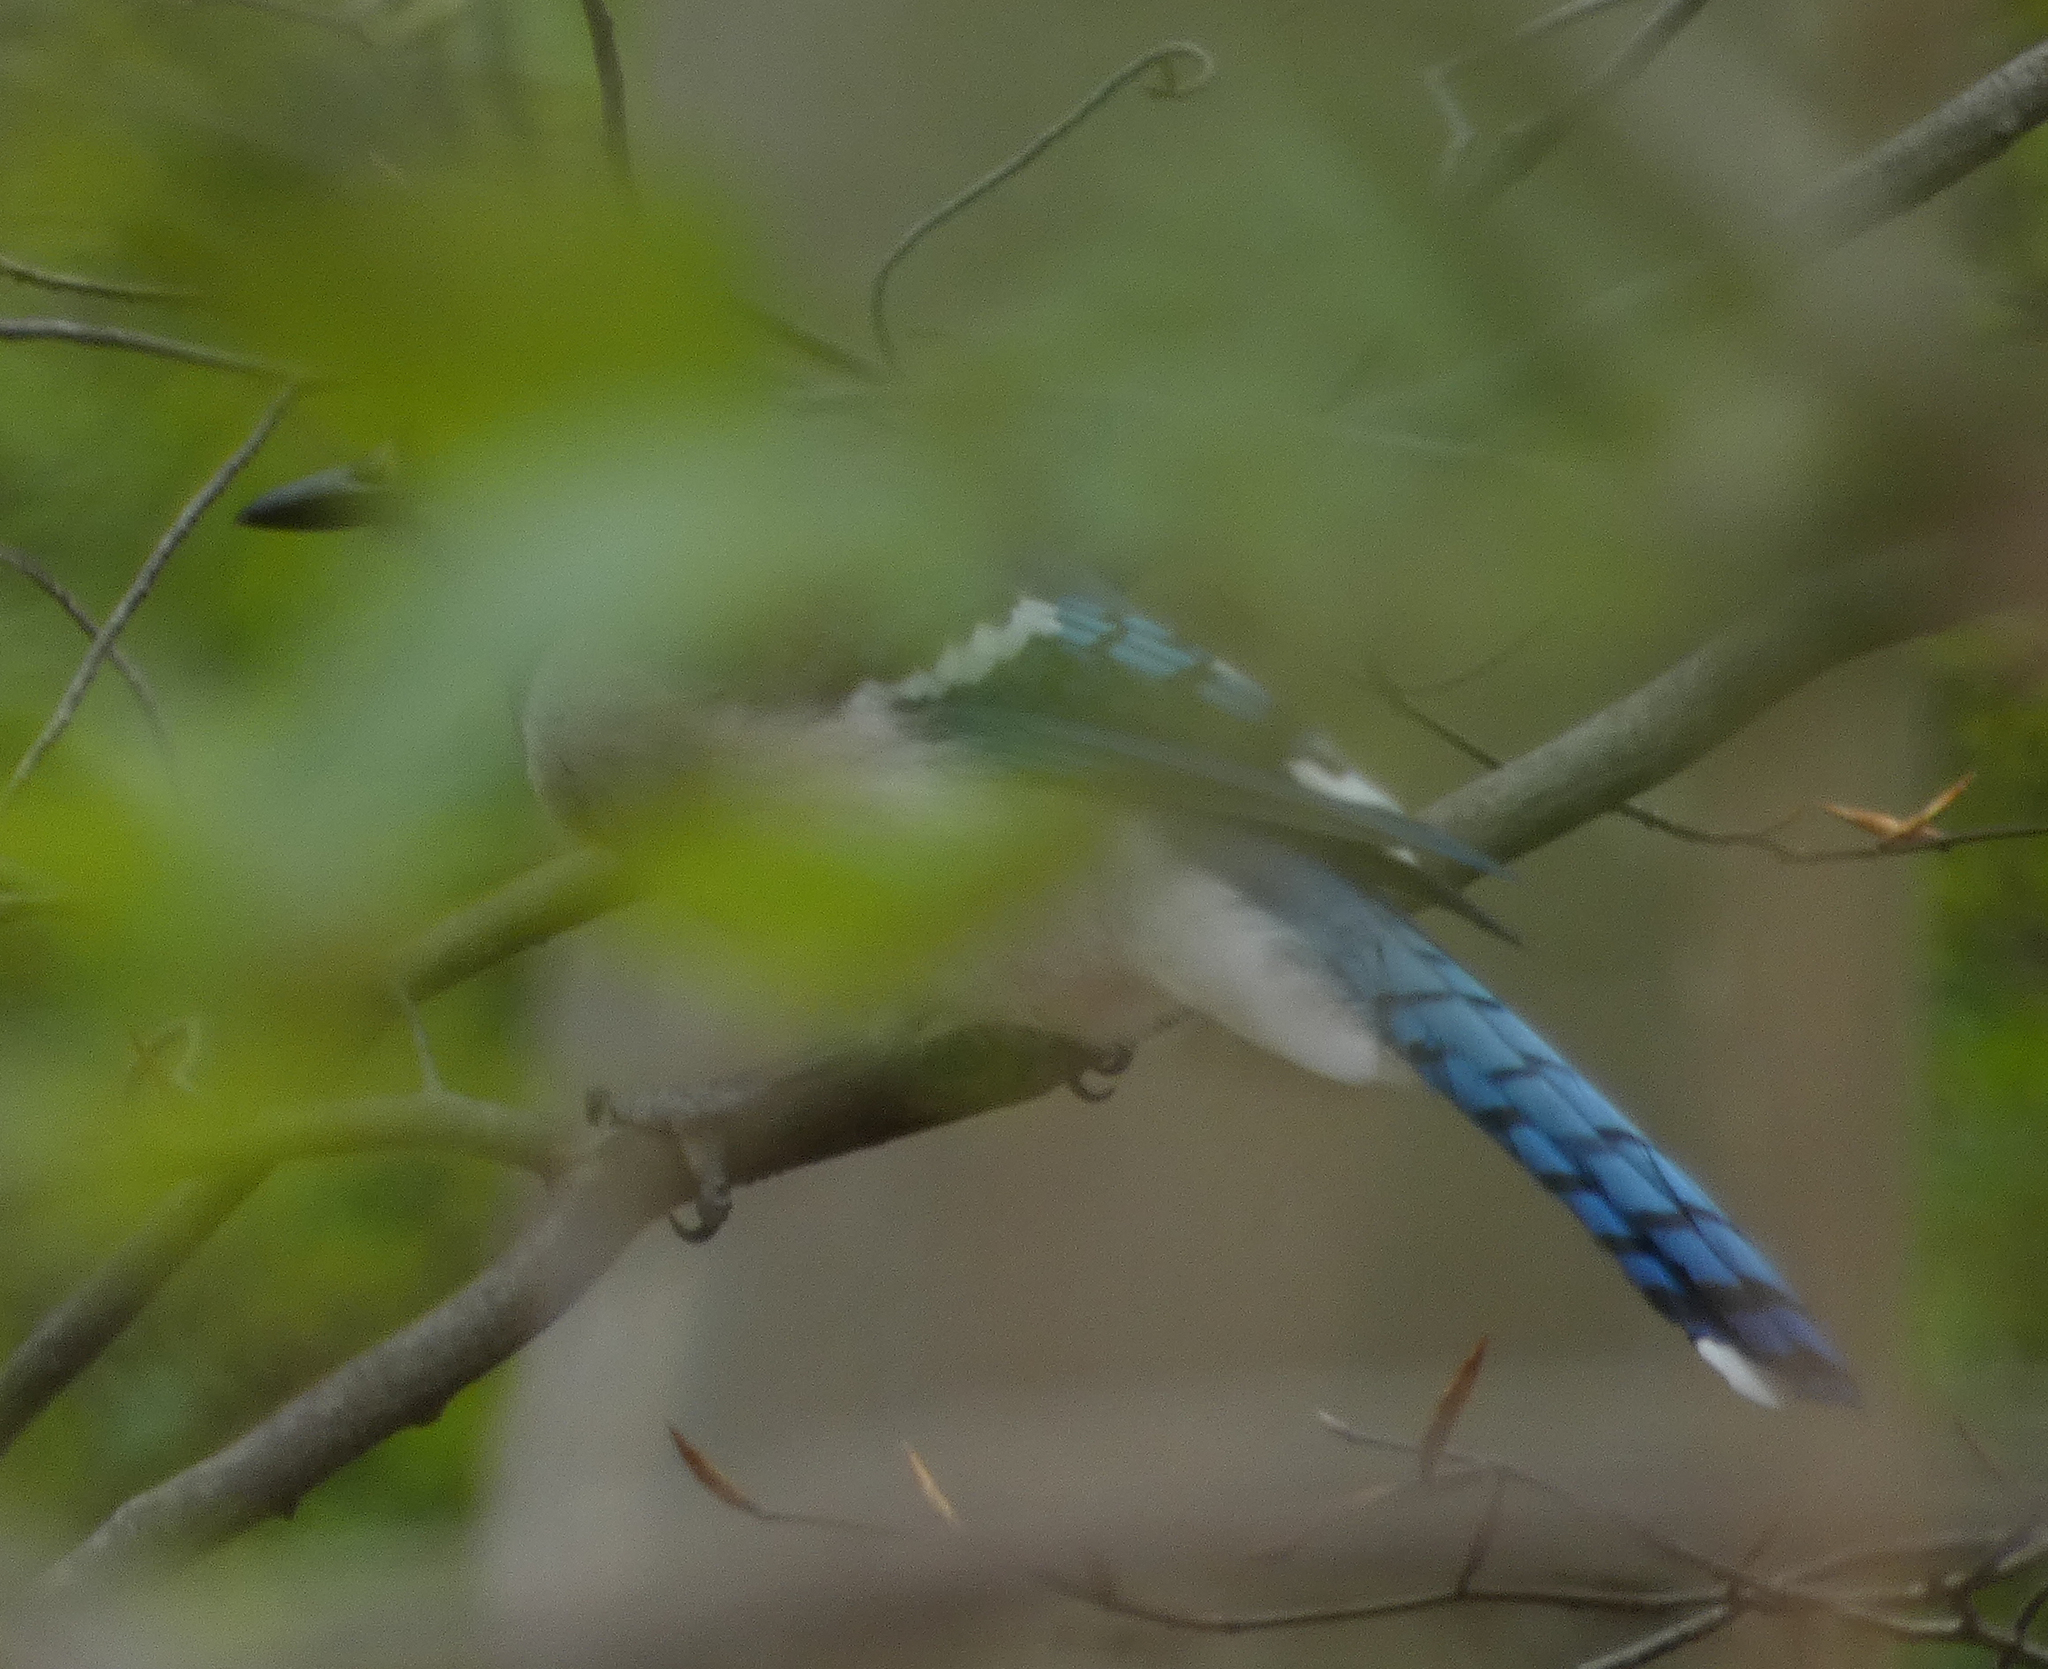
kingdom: Animalia
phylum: Chordata
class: Aves
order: Passeriformes
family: Corvidae
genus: Cyanocitta
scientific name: Cyanocitta cristata
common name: Blue jay
